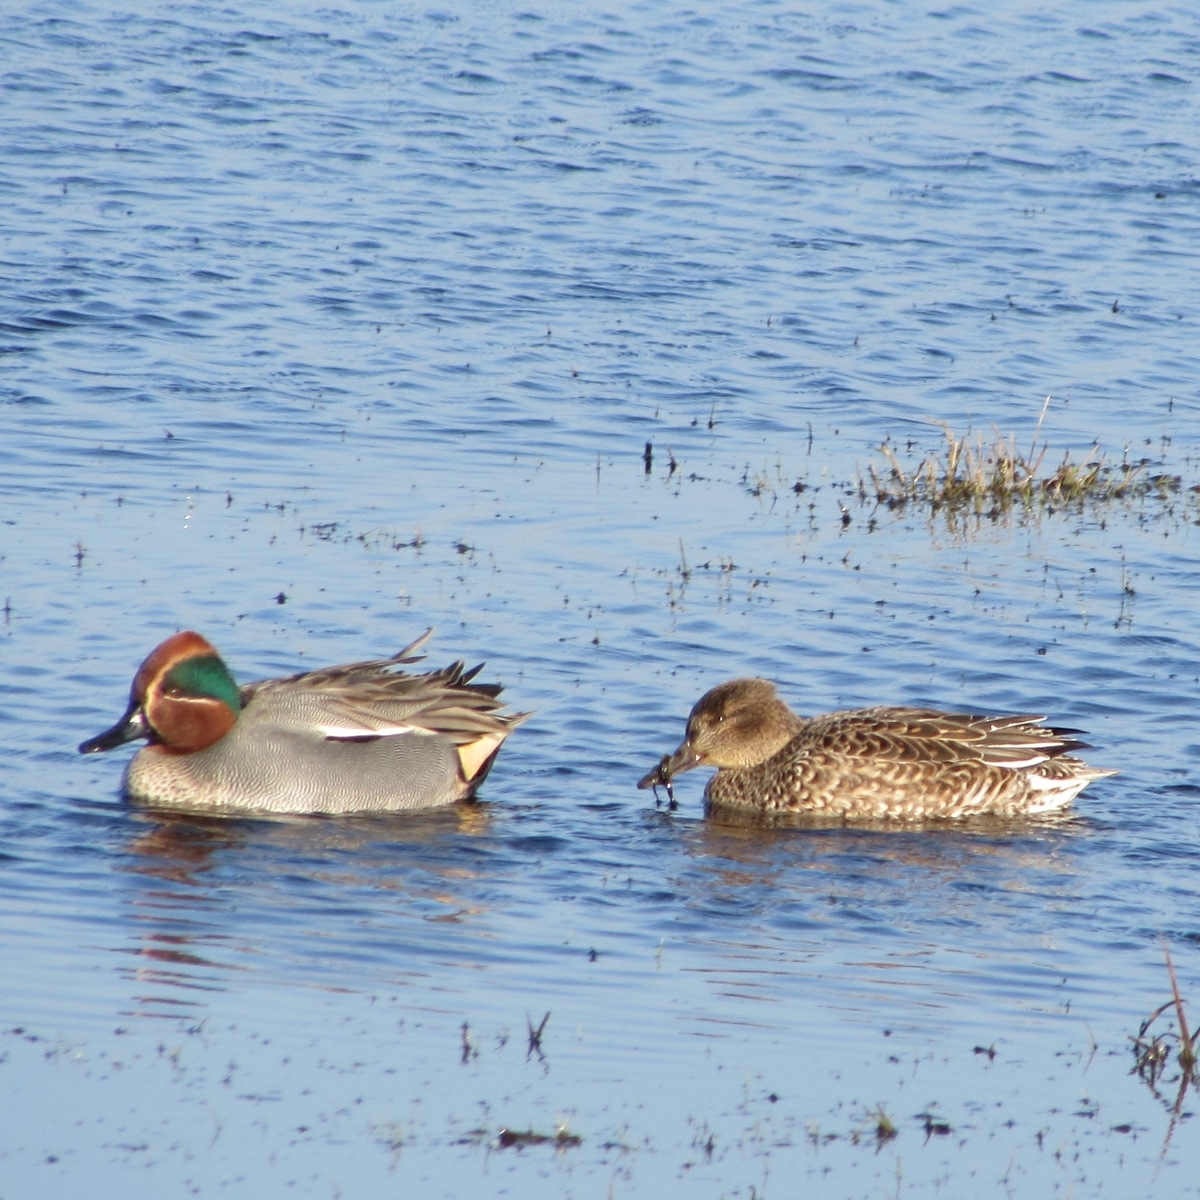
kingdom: Animalia
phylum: Chordata
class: Aves
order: Anseriformes
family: Anatidae
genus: Anas
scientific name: Anas crecca
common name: Eurasian teal
